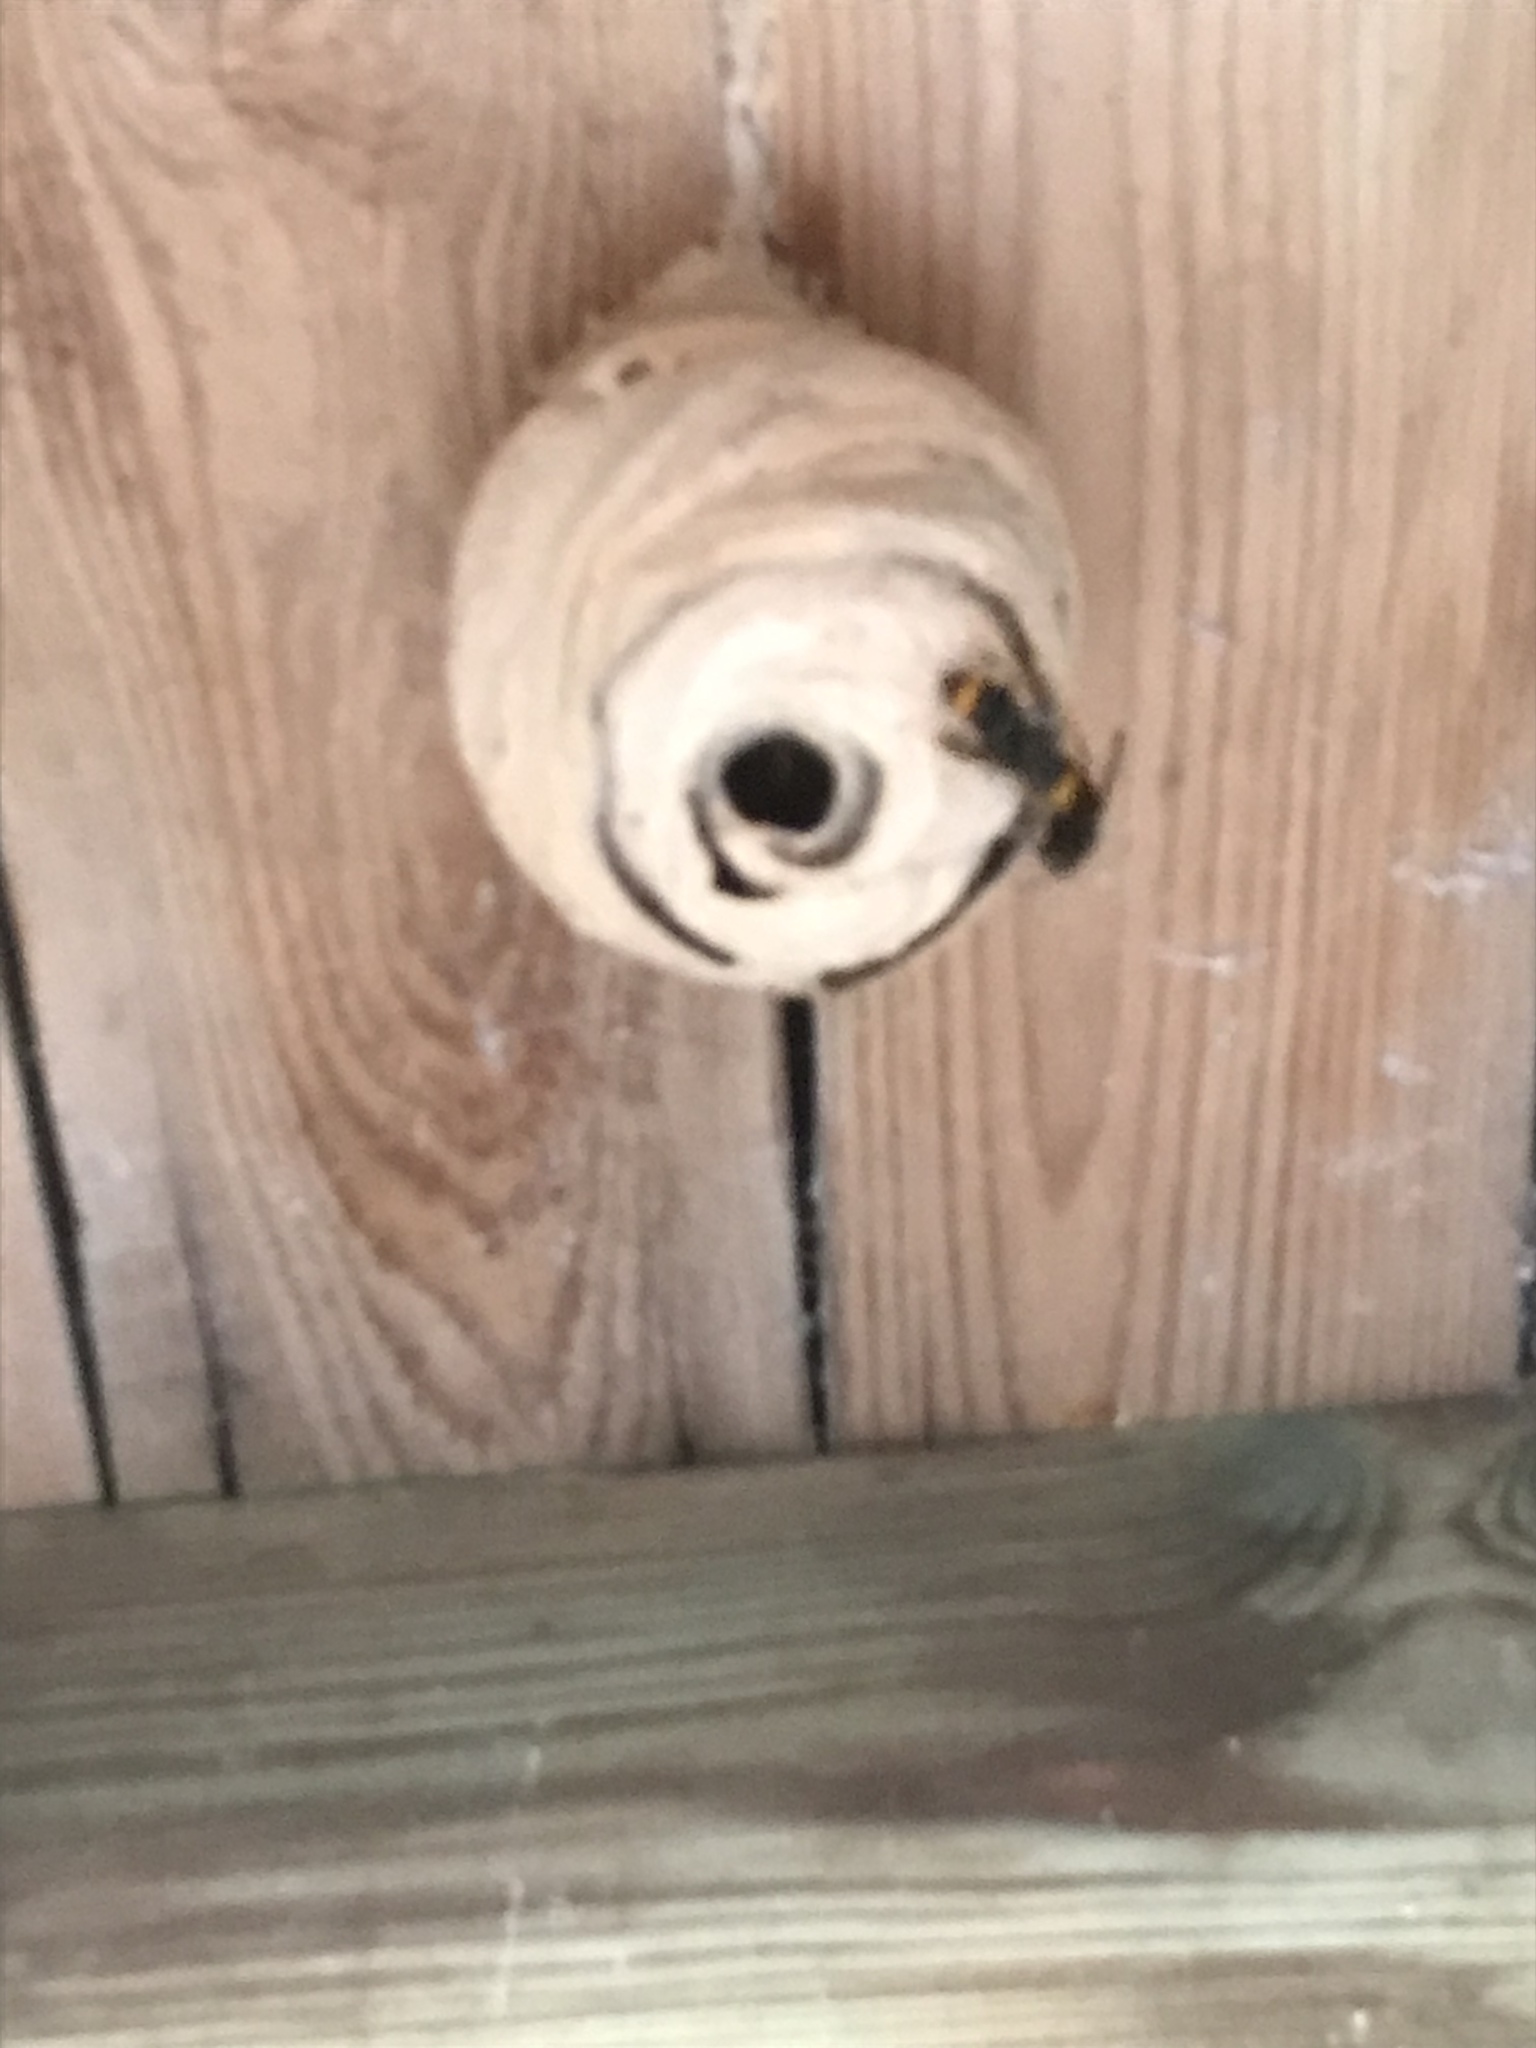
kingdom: Animalia
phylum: Arthropoda
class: Insecta
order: Hymenoptera
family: Vespidae
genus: Vespa
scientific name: Vespa velutina
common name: Asian hornet
